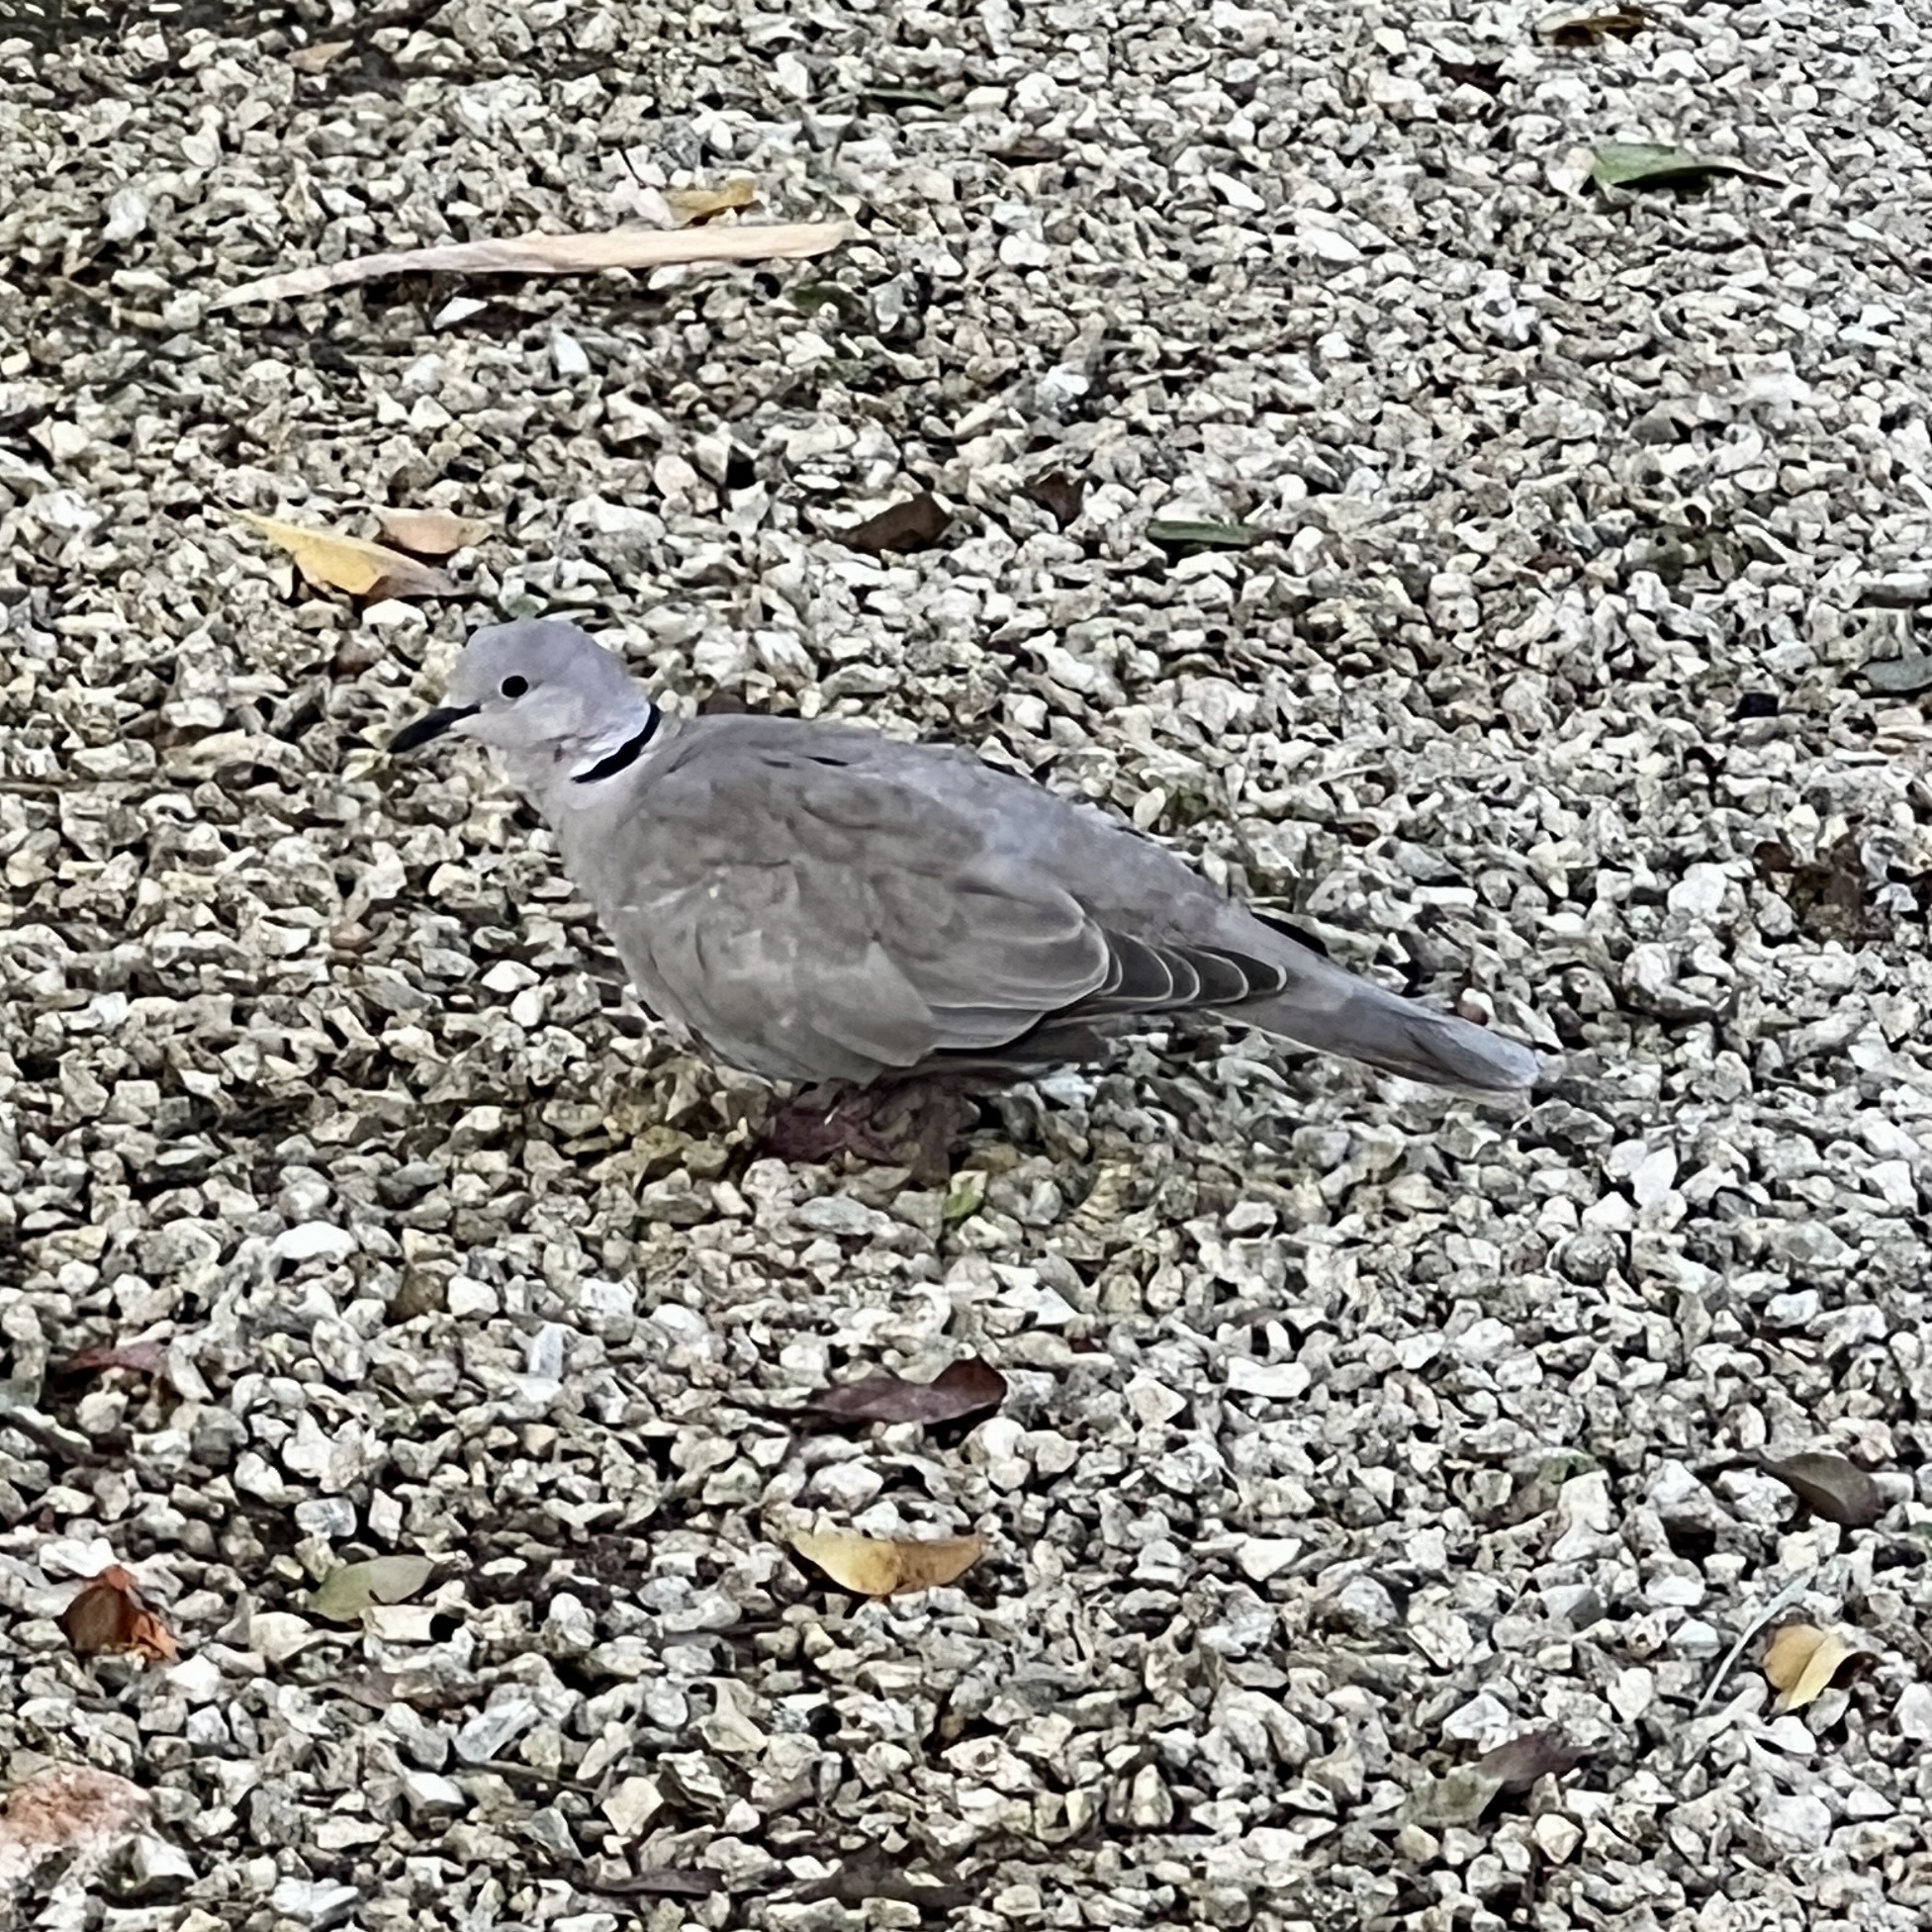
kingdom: Animalia
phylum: Chordata
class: Aves
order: Columbiformes
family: Columbidae
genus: Streptopelia
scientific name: Streptopelia decaocto
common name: Eurasian collared dove
